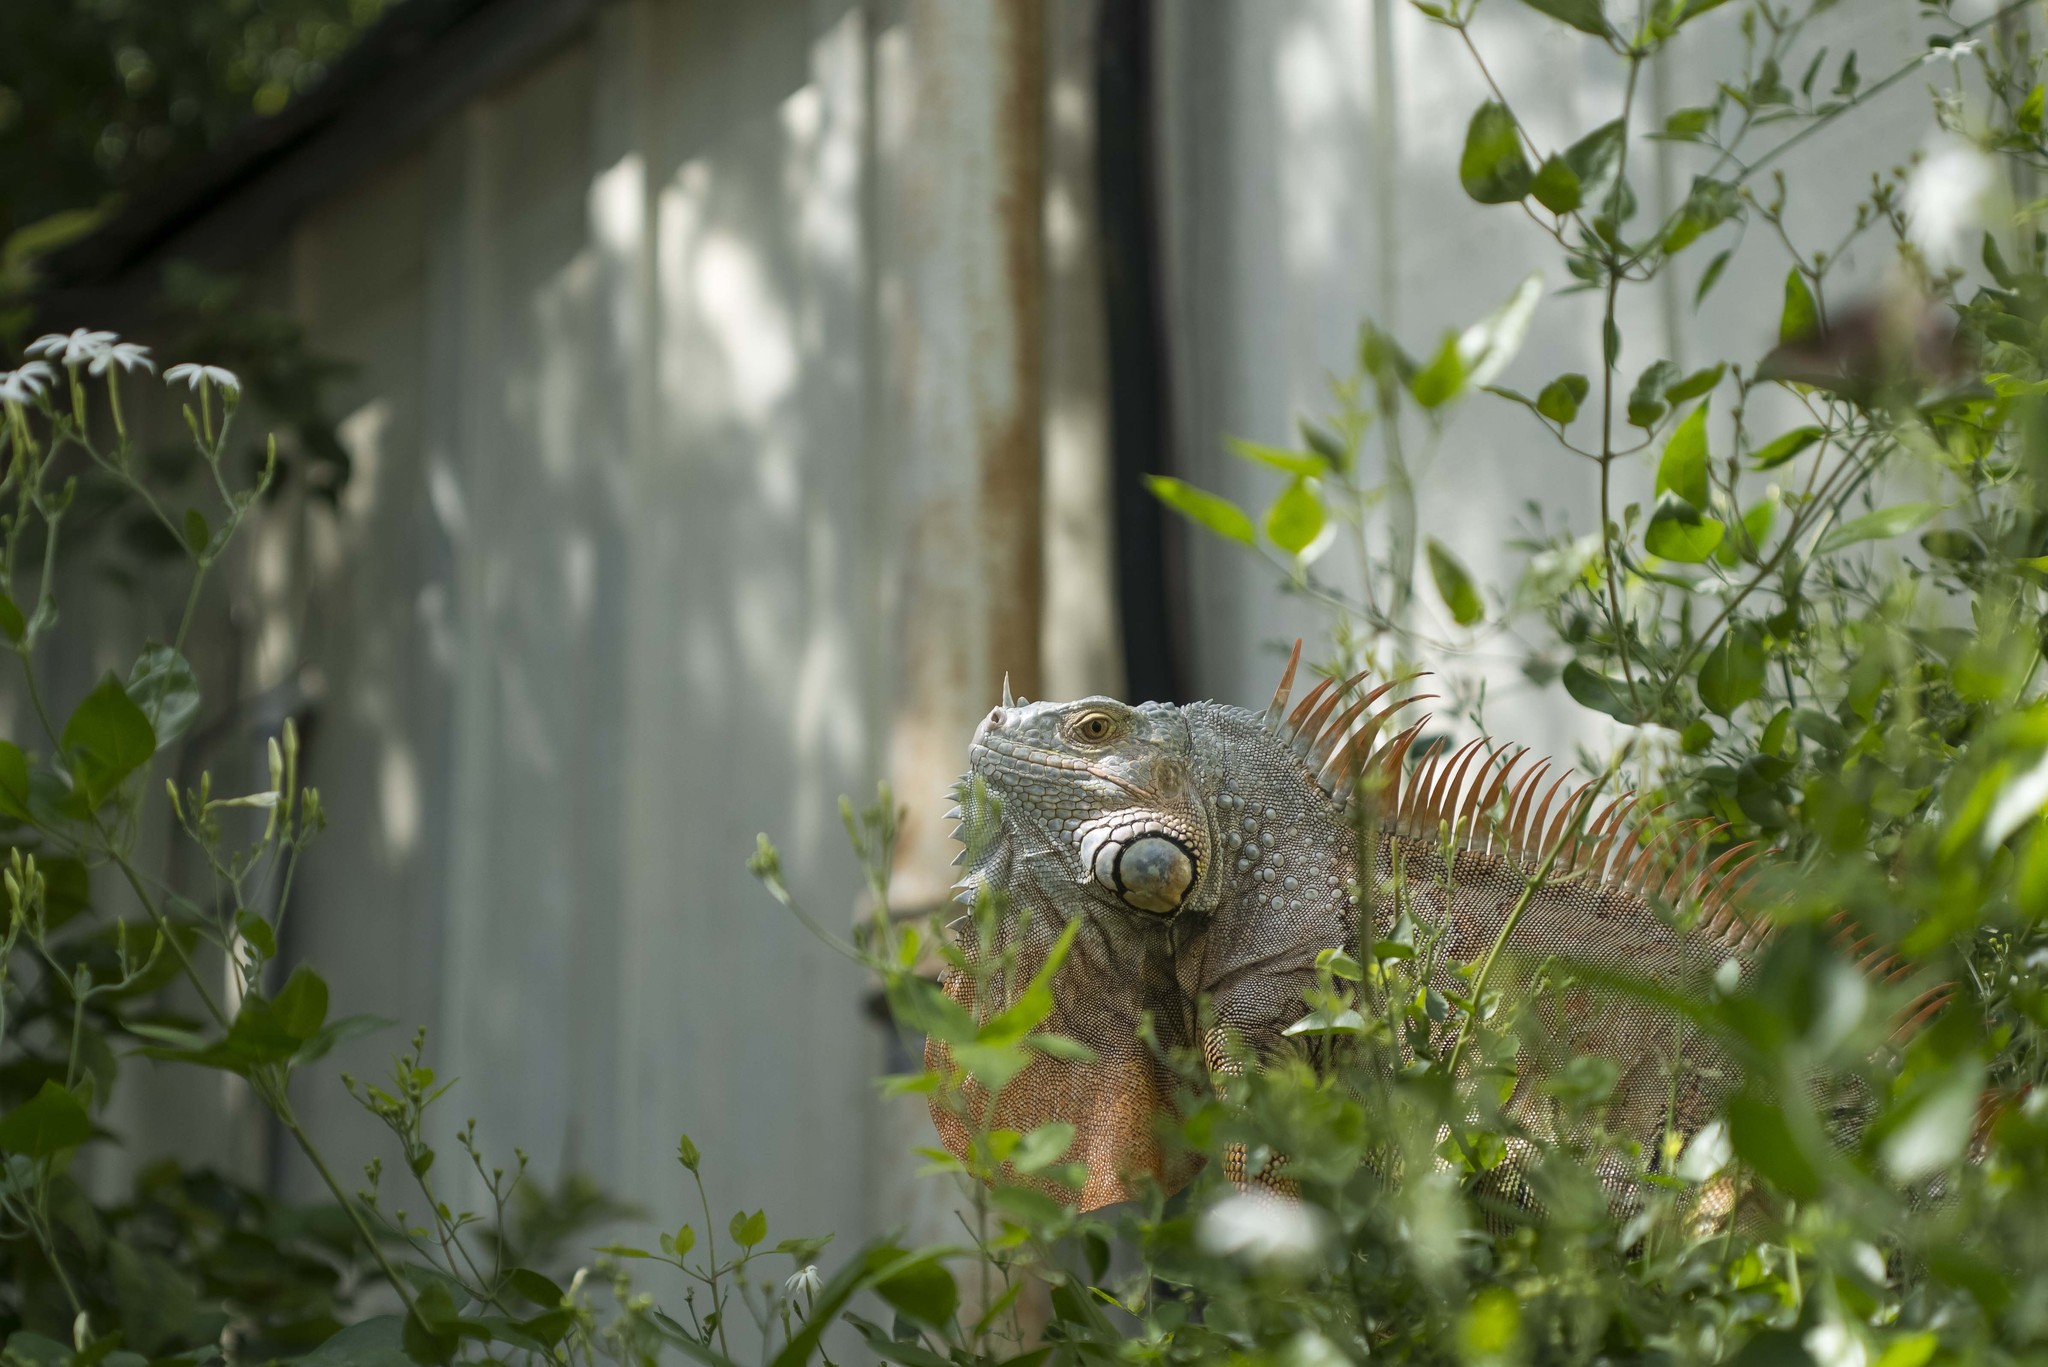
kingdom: Animalia
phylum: Chordata
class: Squamata
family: Iguanidae
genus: Iguana
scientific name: Iguana iguana
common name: Green iguana
